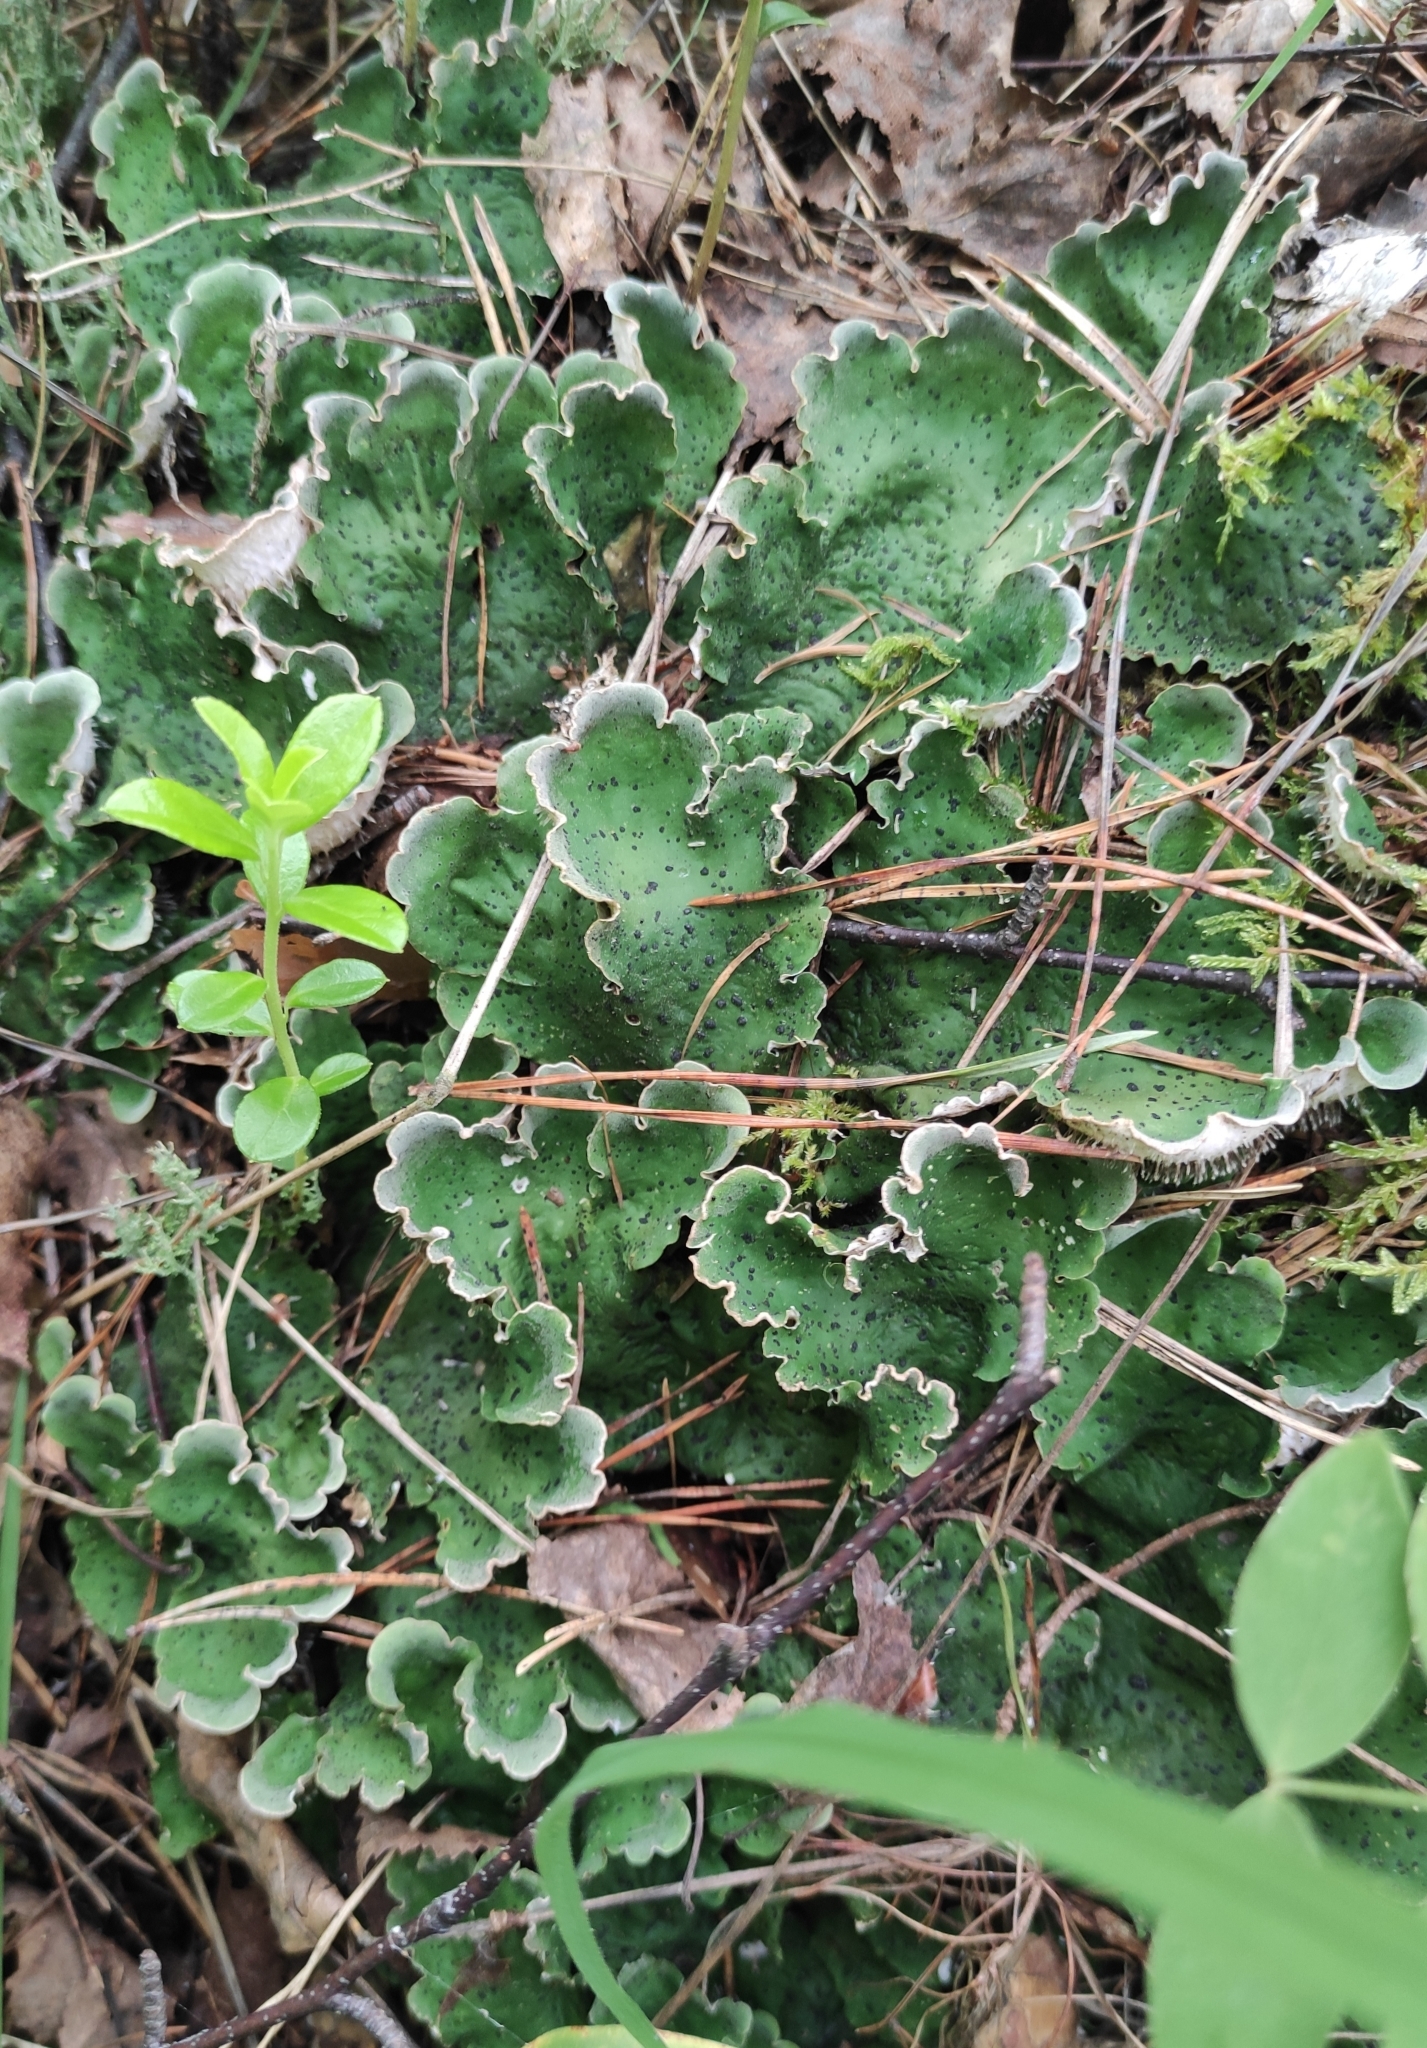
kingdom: Fungi
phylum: Ascomycota
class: Lecanoromycetes
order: Peltigerales
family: Peltigeraceae
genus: Peltigera
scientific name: Peltigera aphthosa
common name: Common freckle pelt lichen
